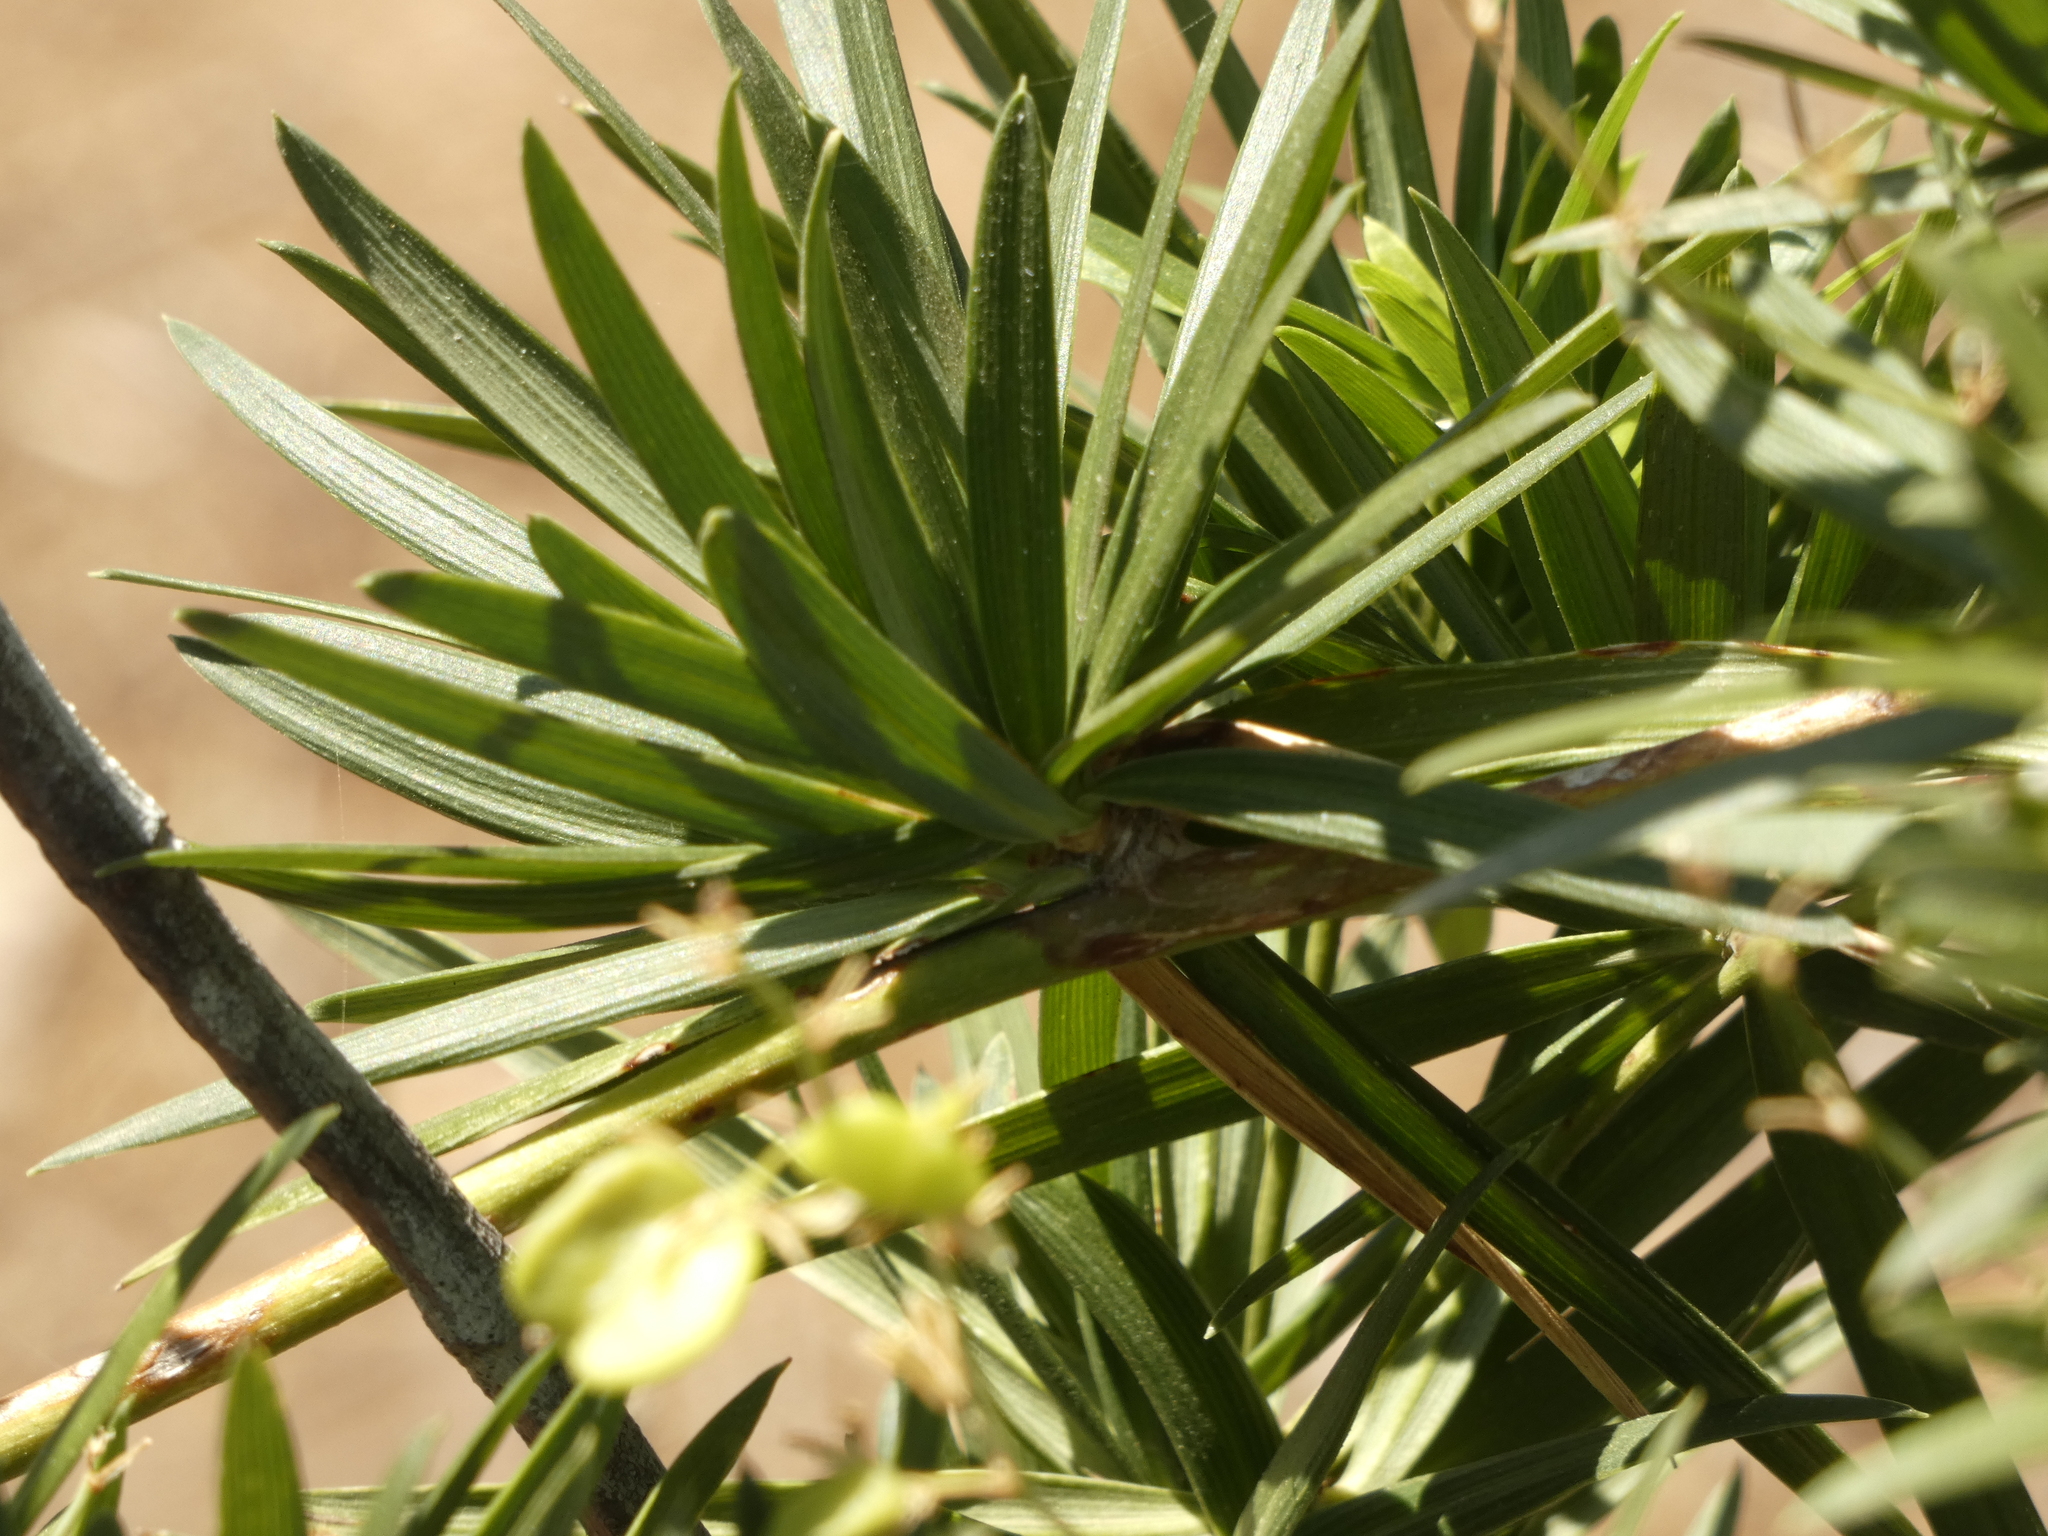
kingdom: Plantae
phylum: Tracheophyta
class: Liliopsida
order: Asparagales
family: Asparagaceae
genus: Herreria
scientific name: Herreria stellata
